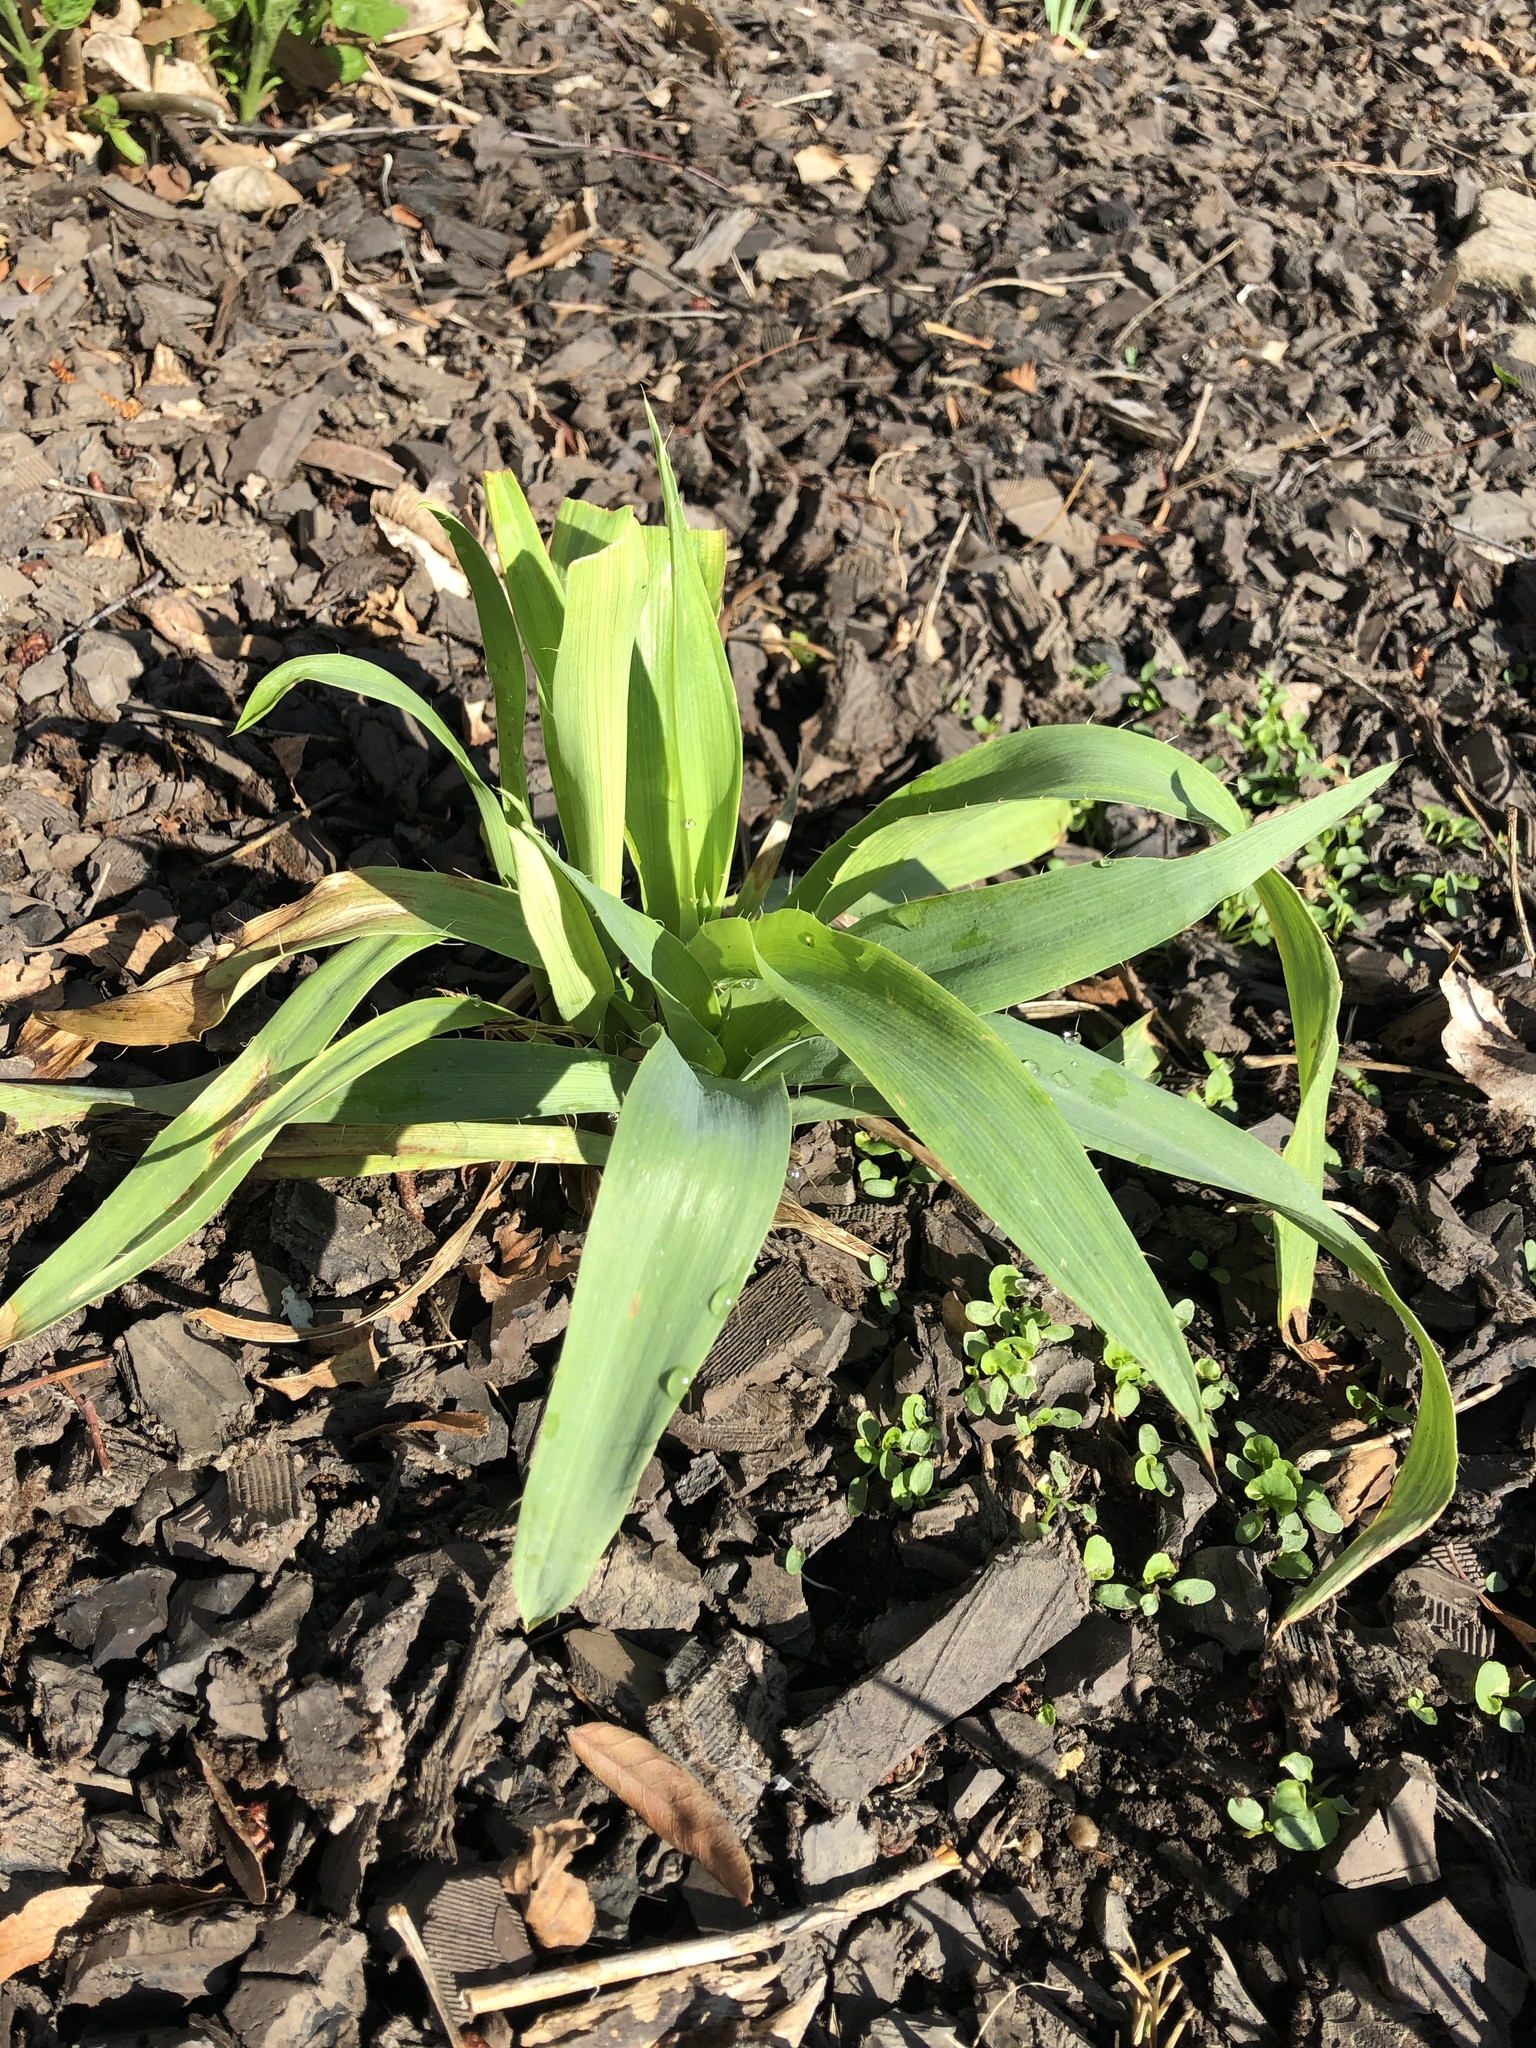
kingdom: Plantae
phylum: Tracheophyta
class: Magnoliopsida
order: Apiales
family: Apiaceae
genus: Eryngium
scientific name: Eryngium yuccifolium
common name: Button eryngo
